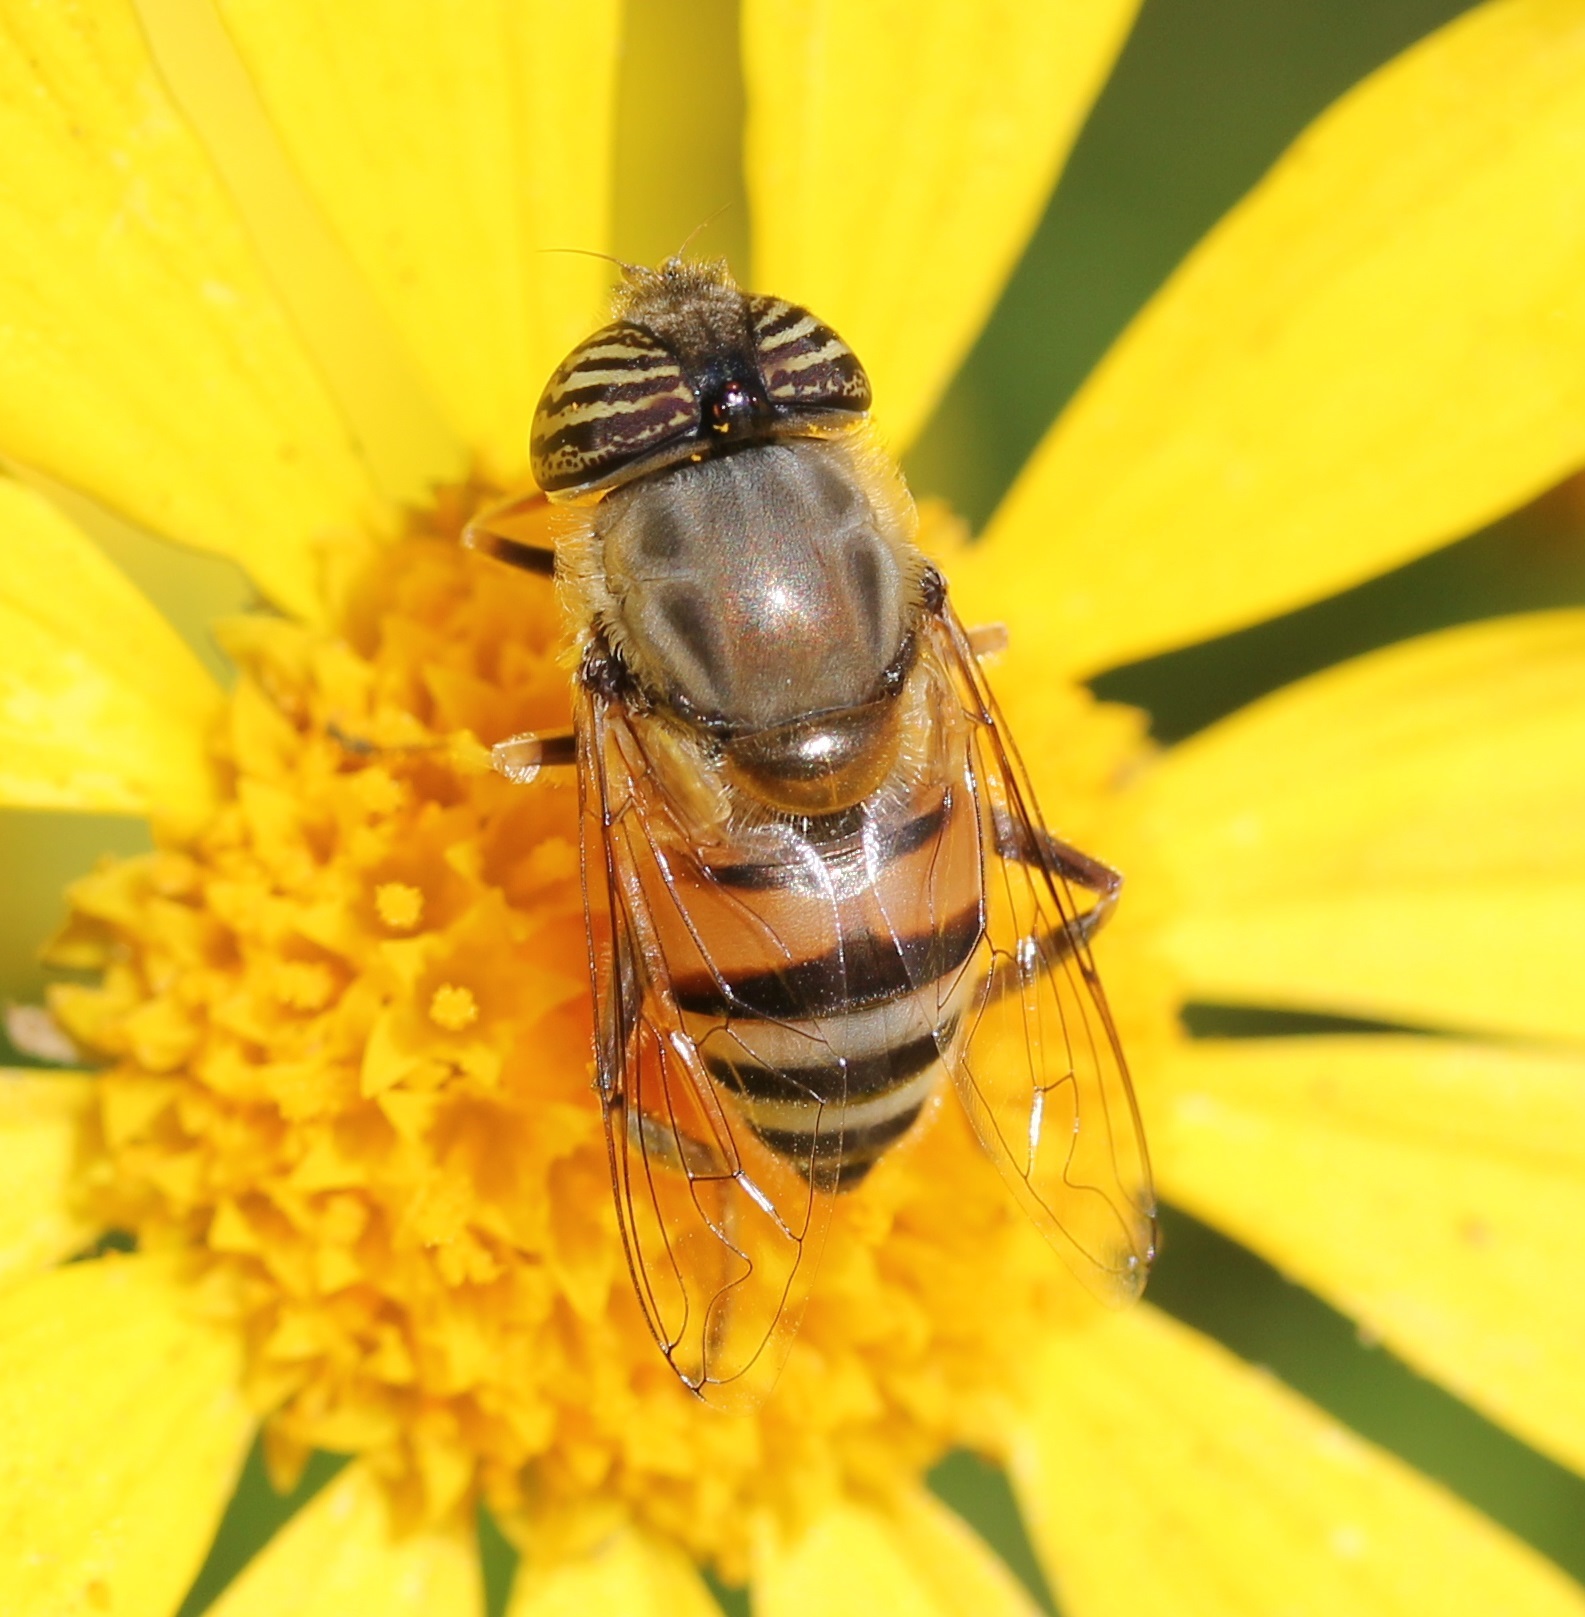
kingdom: Animalia
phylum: Arthropoda
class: Insecta
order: Diptera
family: Syrphidae
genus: Eristalinus
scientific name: Eristalinus taeniops
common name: Syrphid fly
